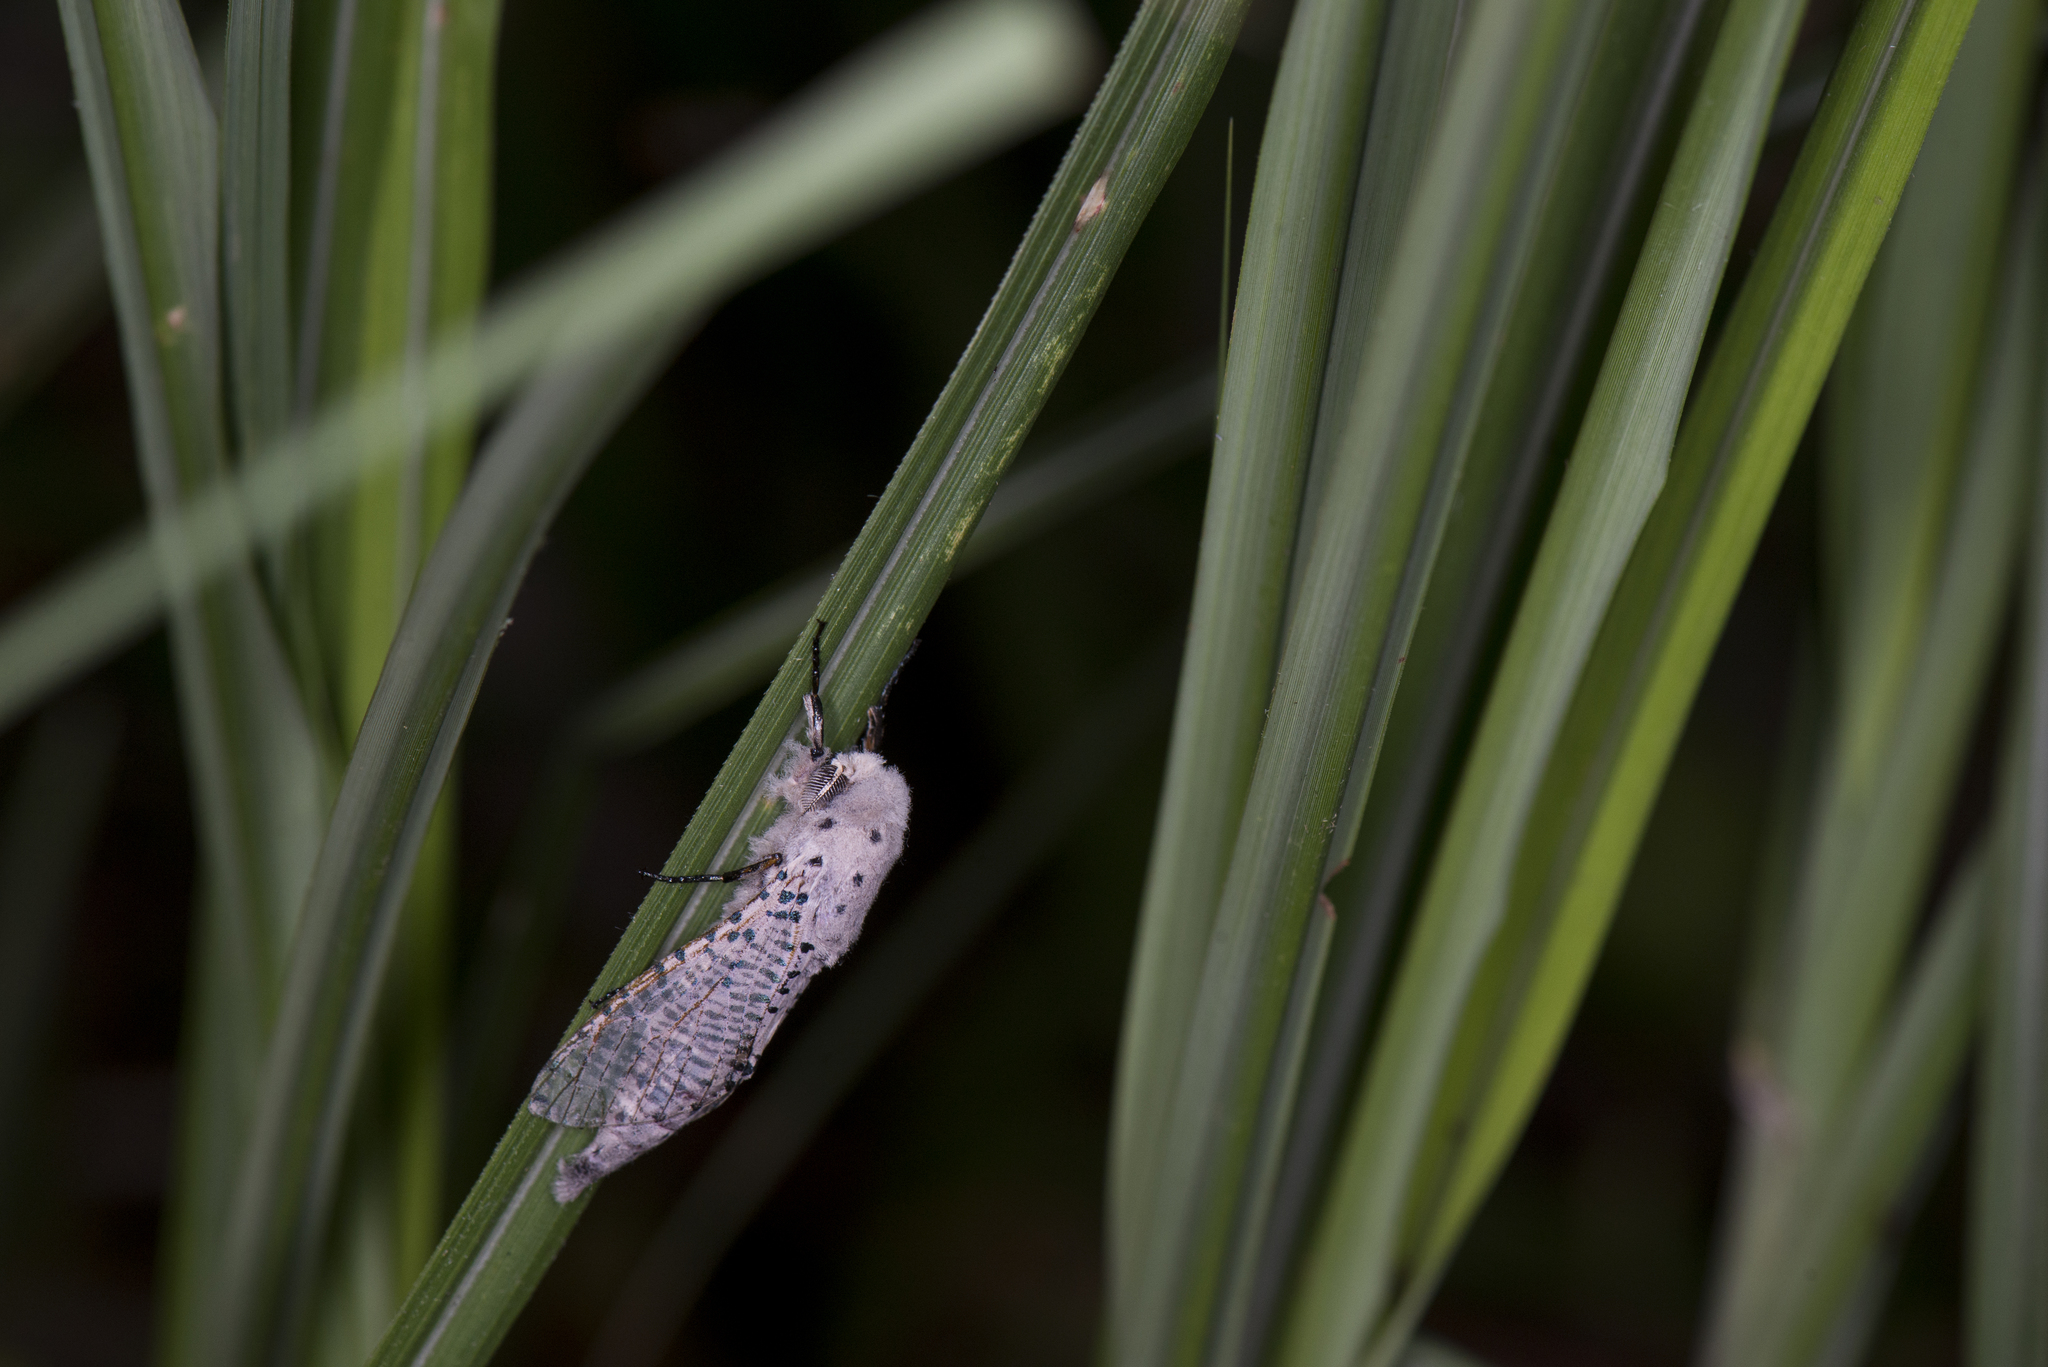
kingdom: Animalia
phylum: Arthropoda
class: Insecta
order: Lepidoptera
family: Cossidae
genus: Polyphagozerra
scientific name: Polyphagozerra coffeae
